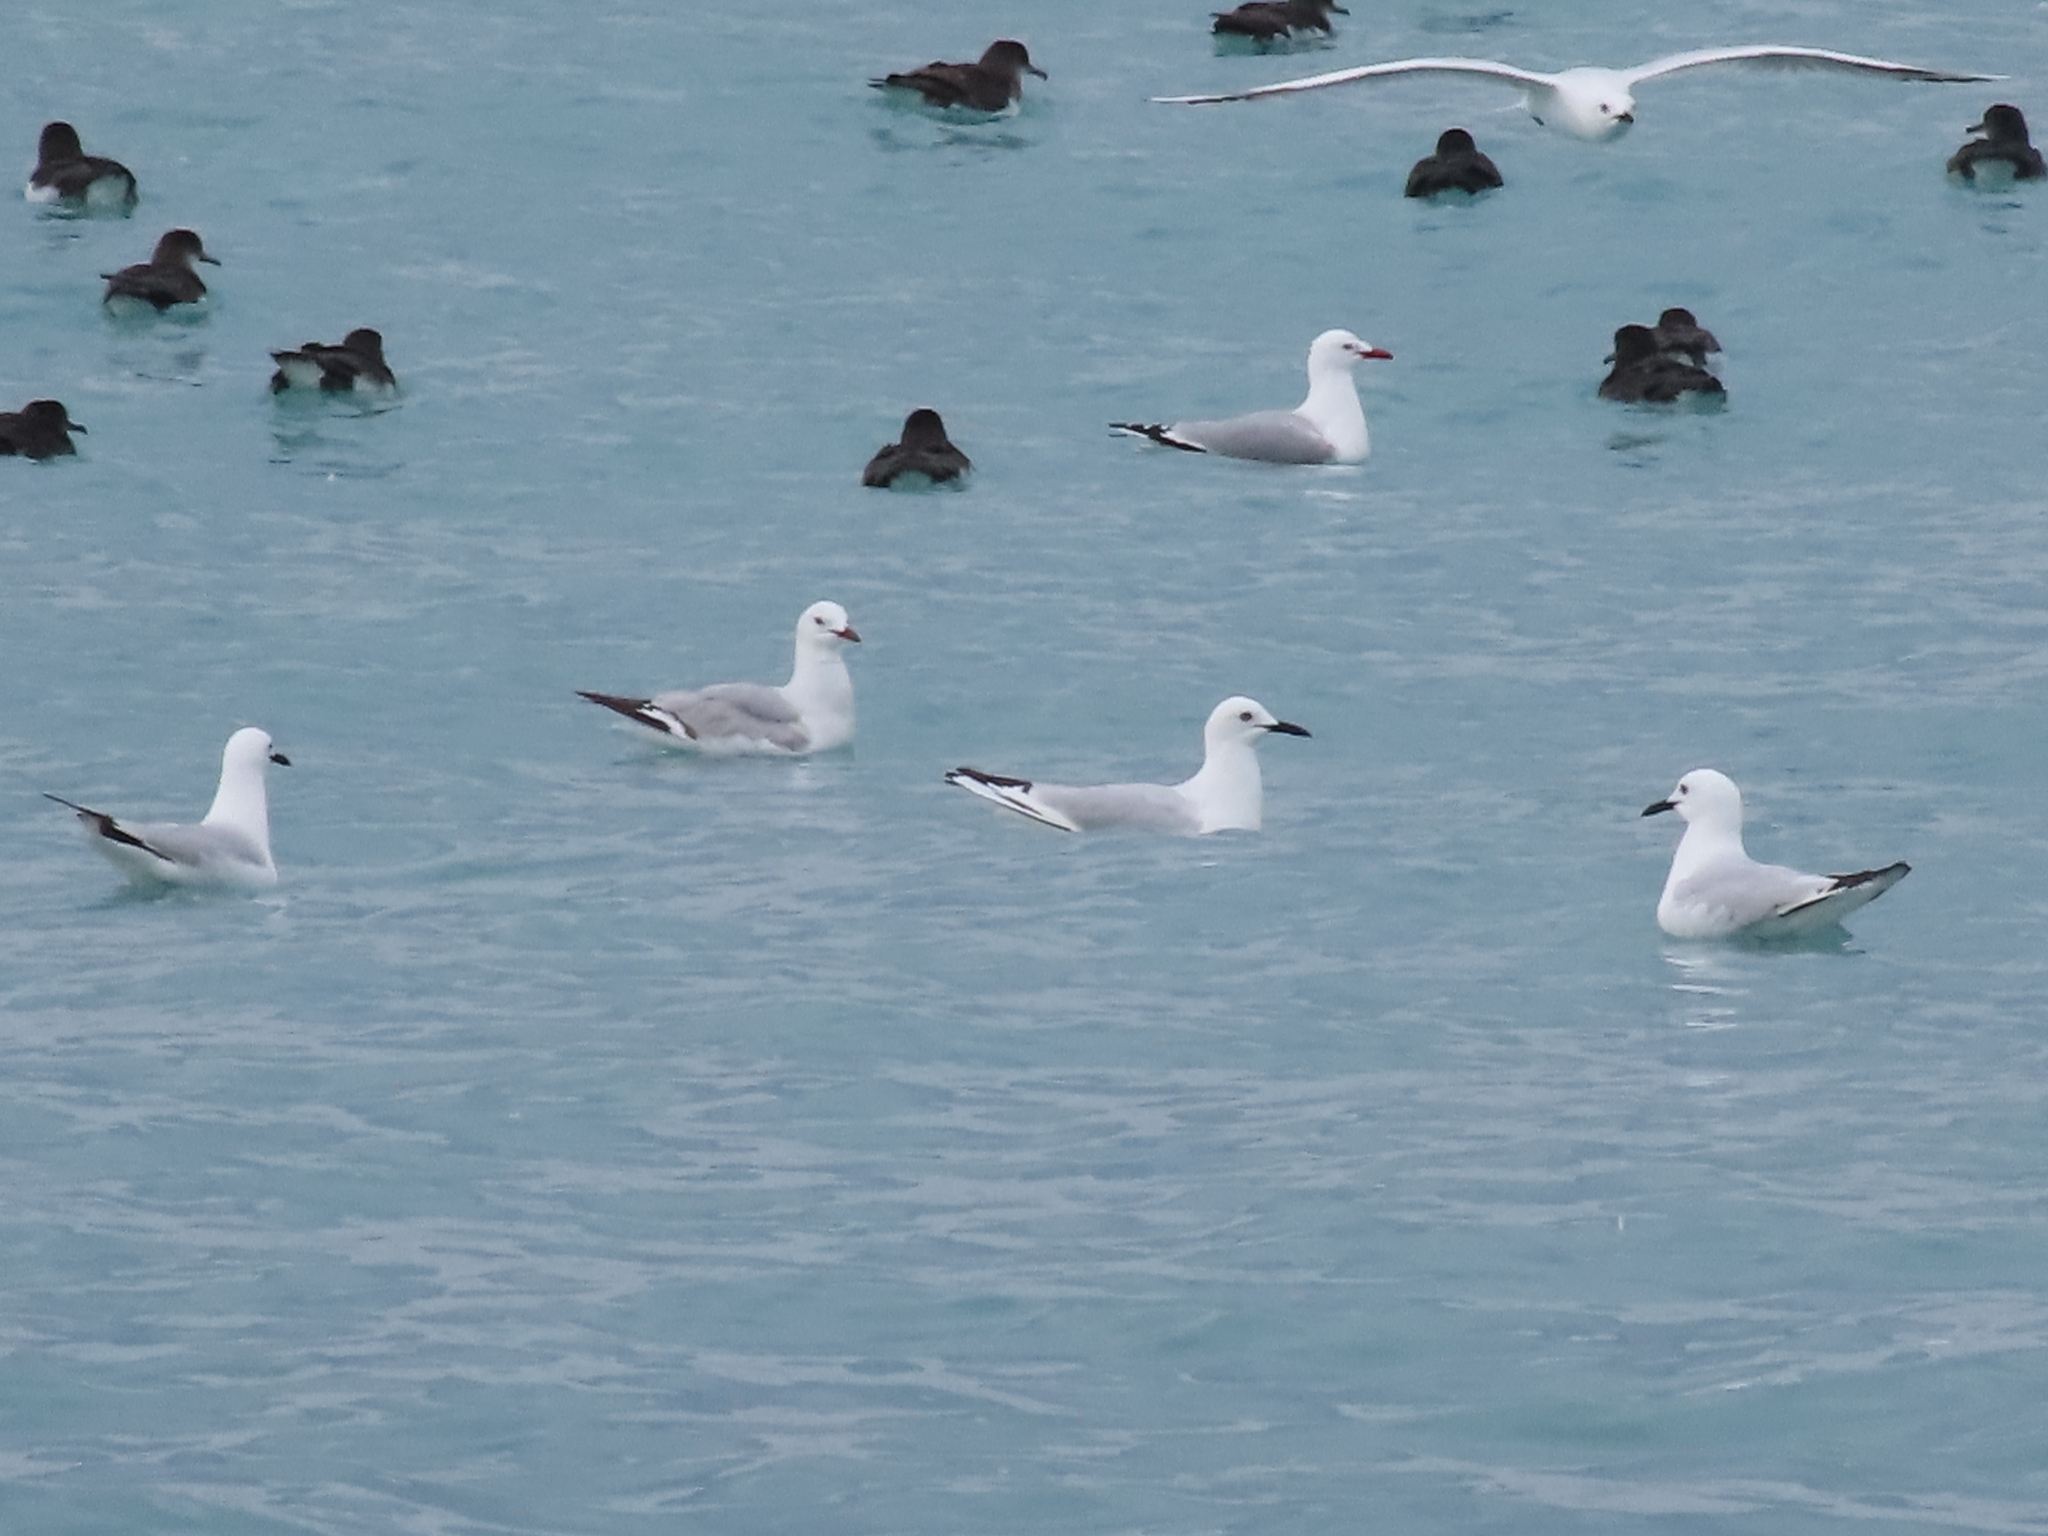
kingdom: Animalia
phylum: Chordata
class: Aves
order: Charadriiformes
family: Laridae
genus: Chroicocephalus
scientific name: Chroicocephalus bulleri
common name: Black-billed gull
